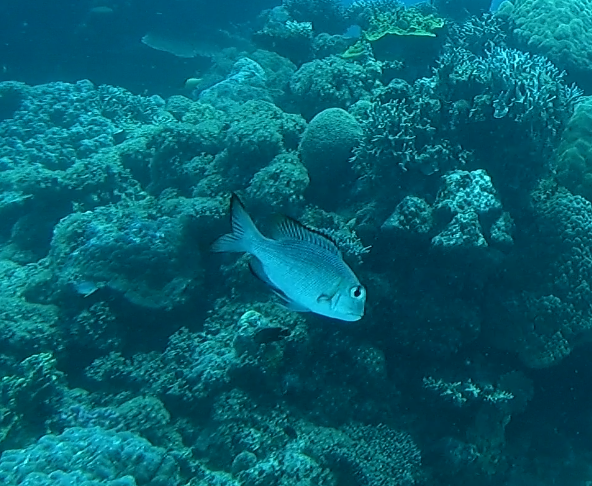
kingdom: Animalia
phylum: Chordata
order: Perciformes
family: Lethrinidae
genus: Monotaxis
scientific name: Monotaxis grandoculis
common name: Bigeye emperor
